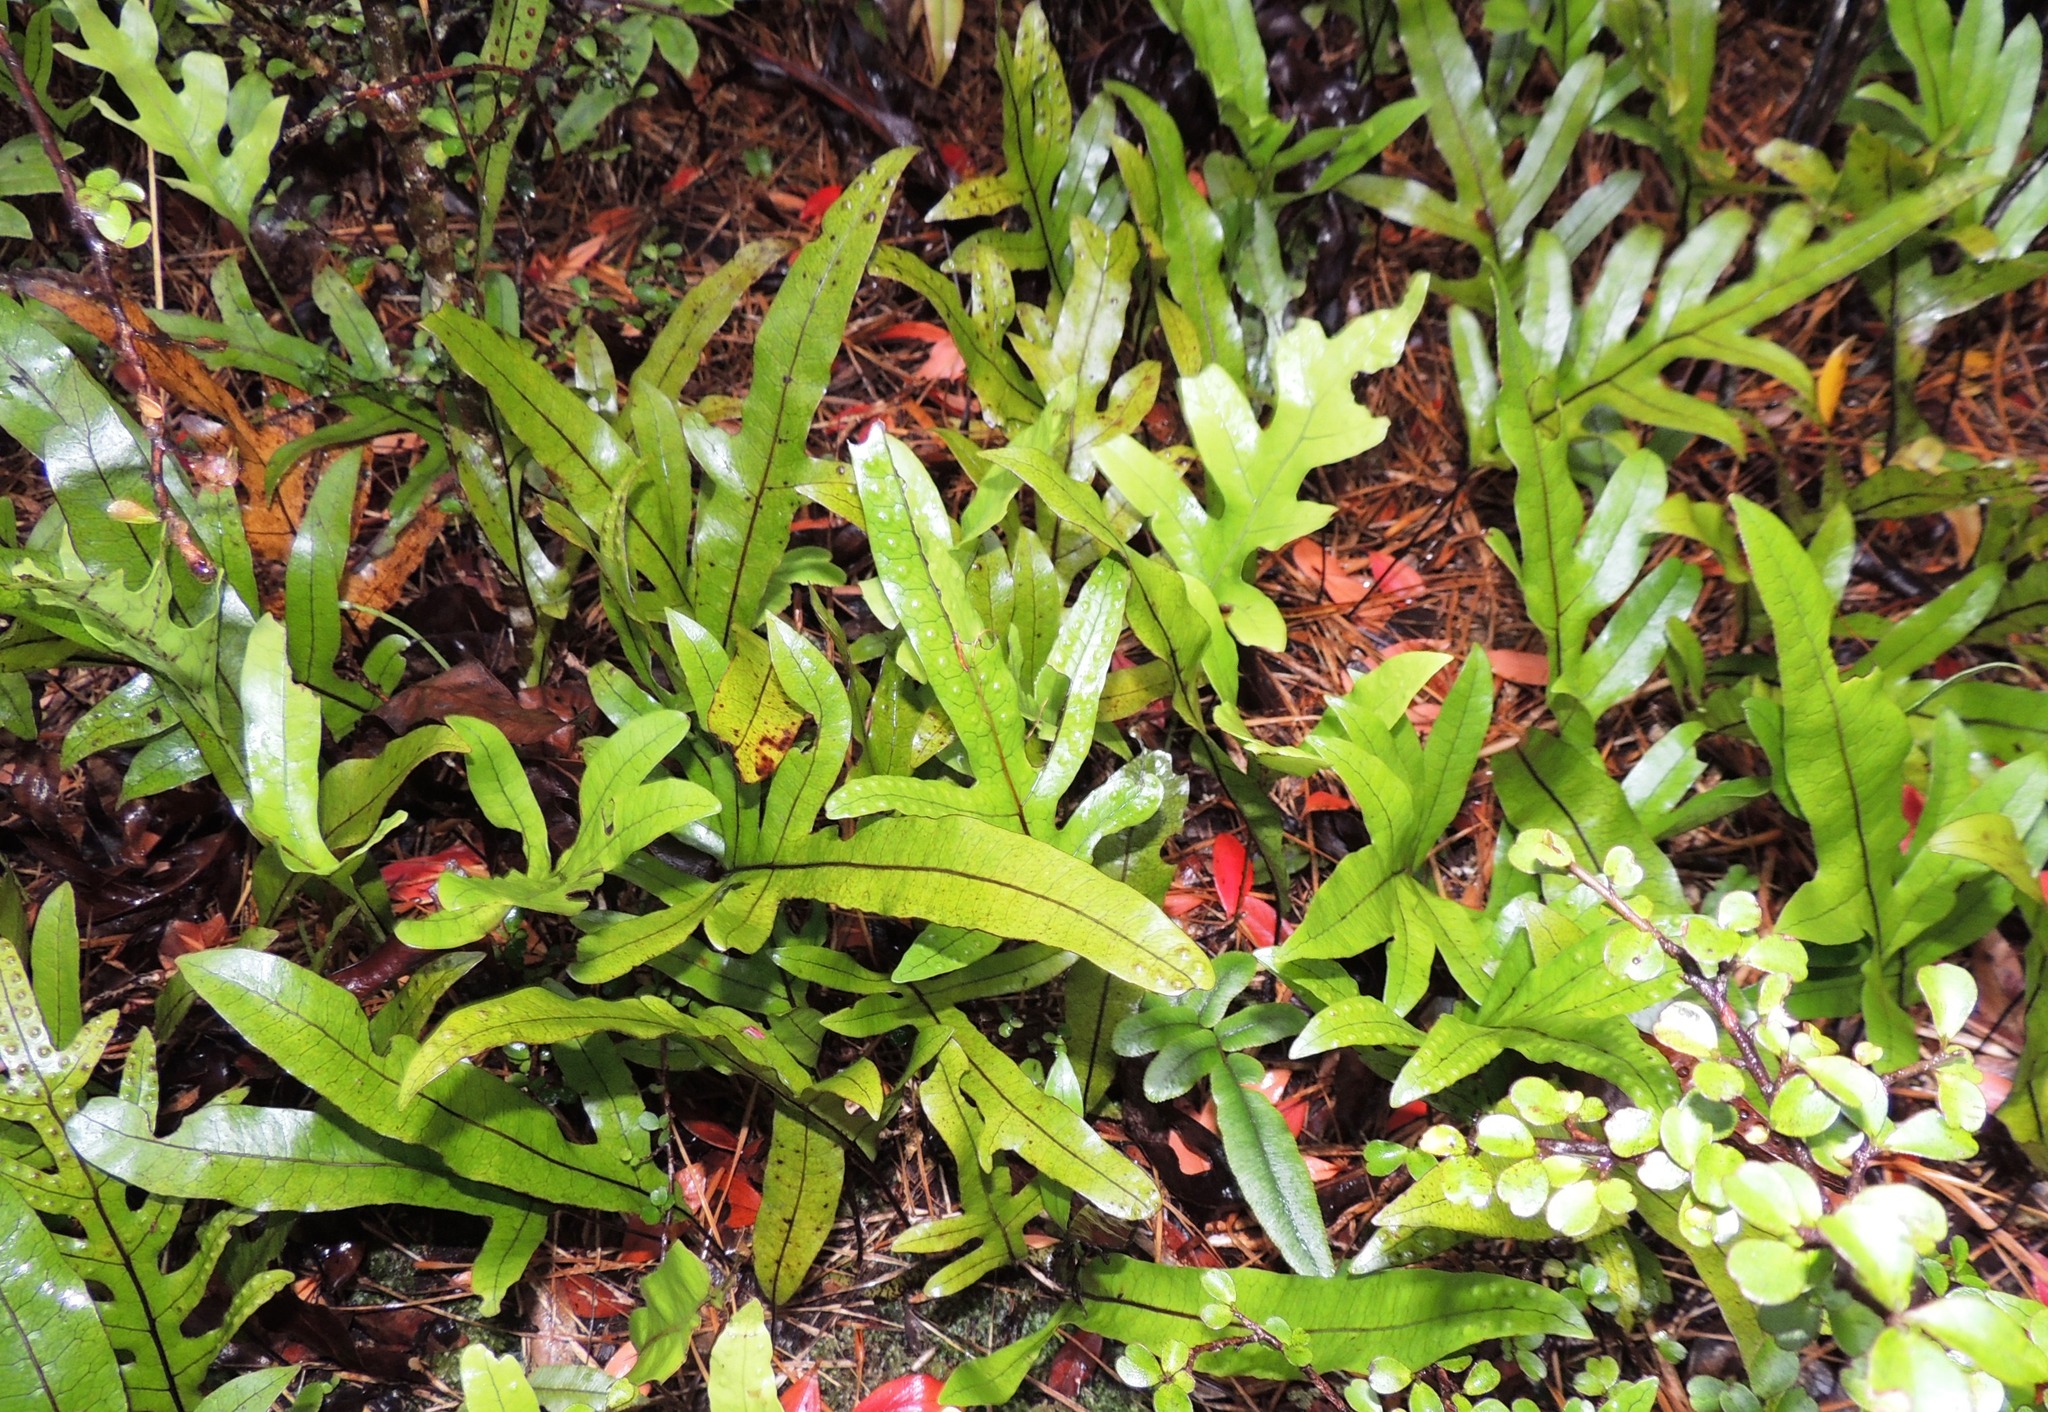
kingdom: Plantae
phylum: Tracheophyta
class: Polypodiopsida
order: Polypodiales
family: Polypodiaceae
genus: Lecanopteris
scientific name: Lecanopteris pustulata
